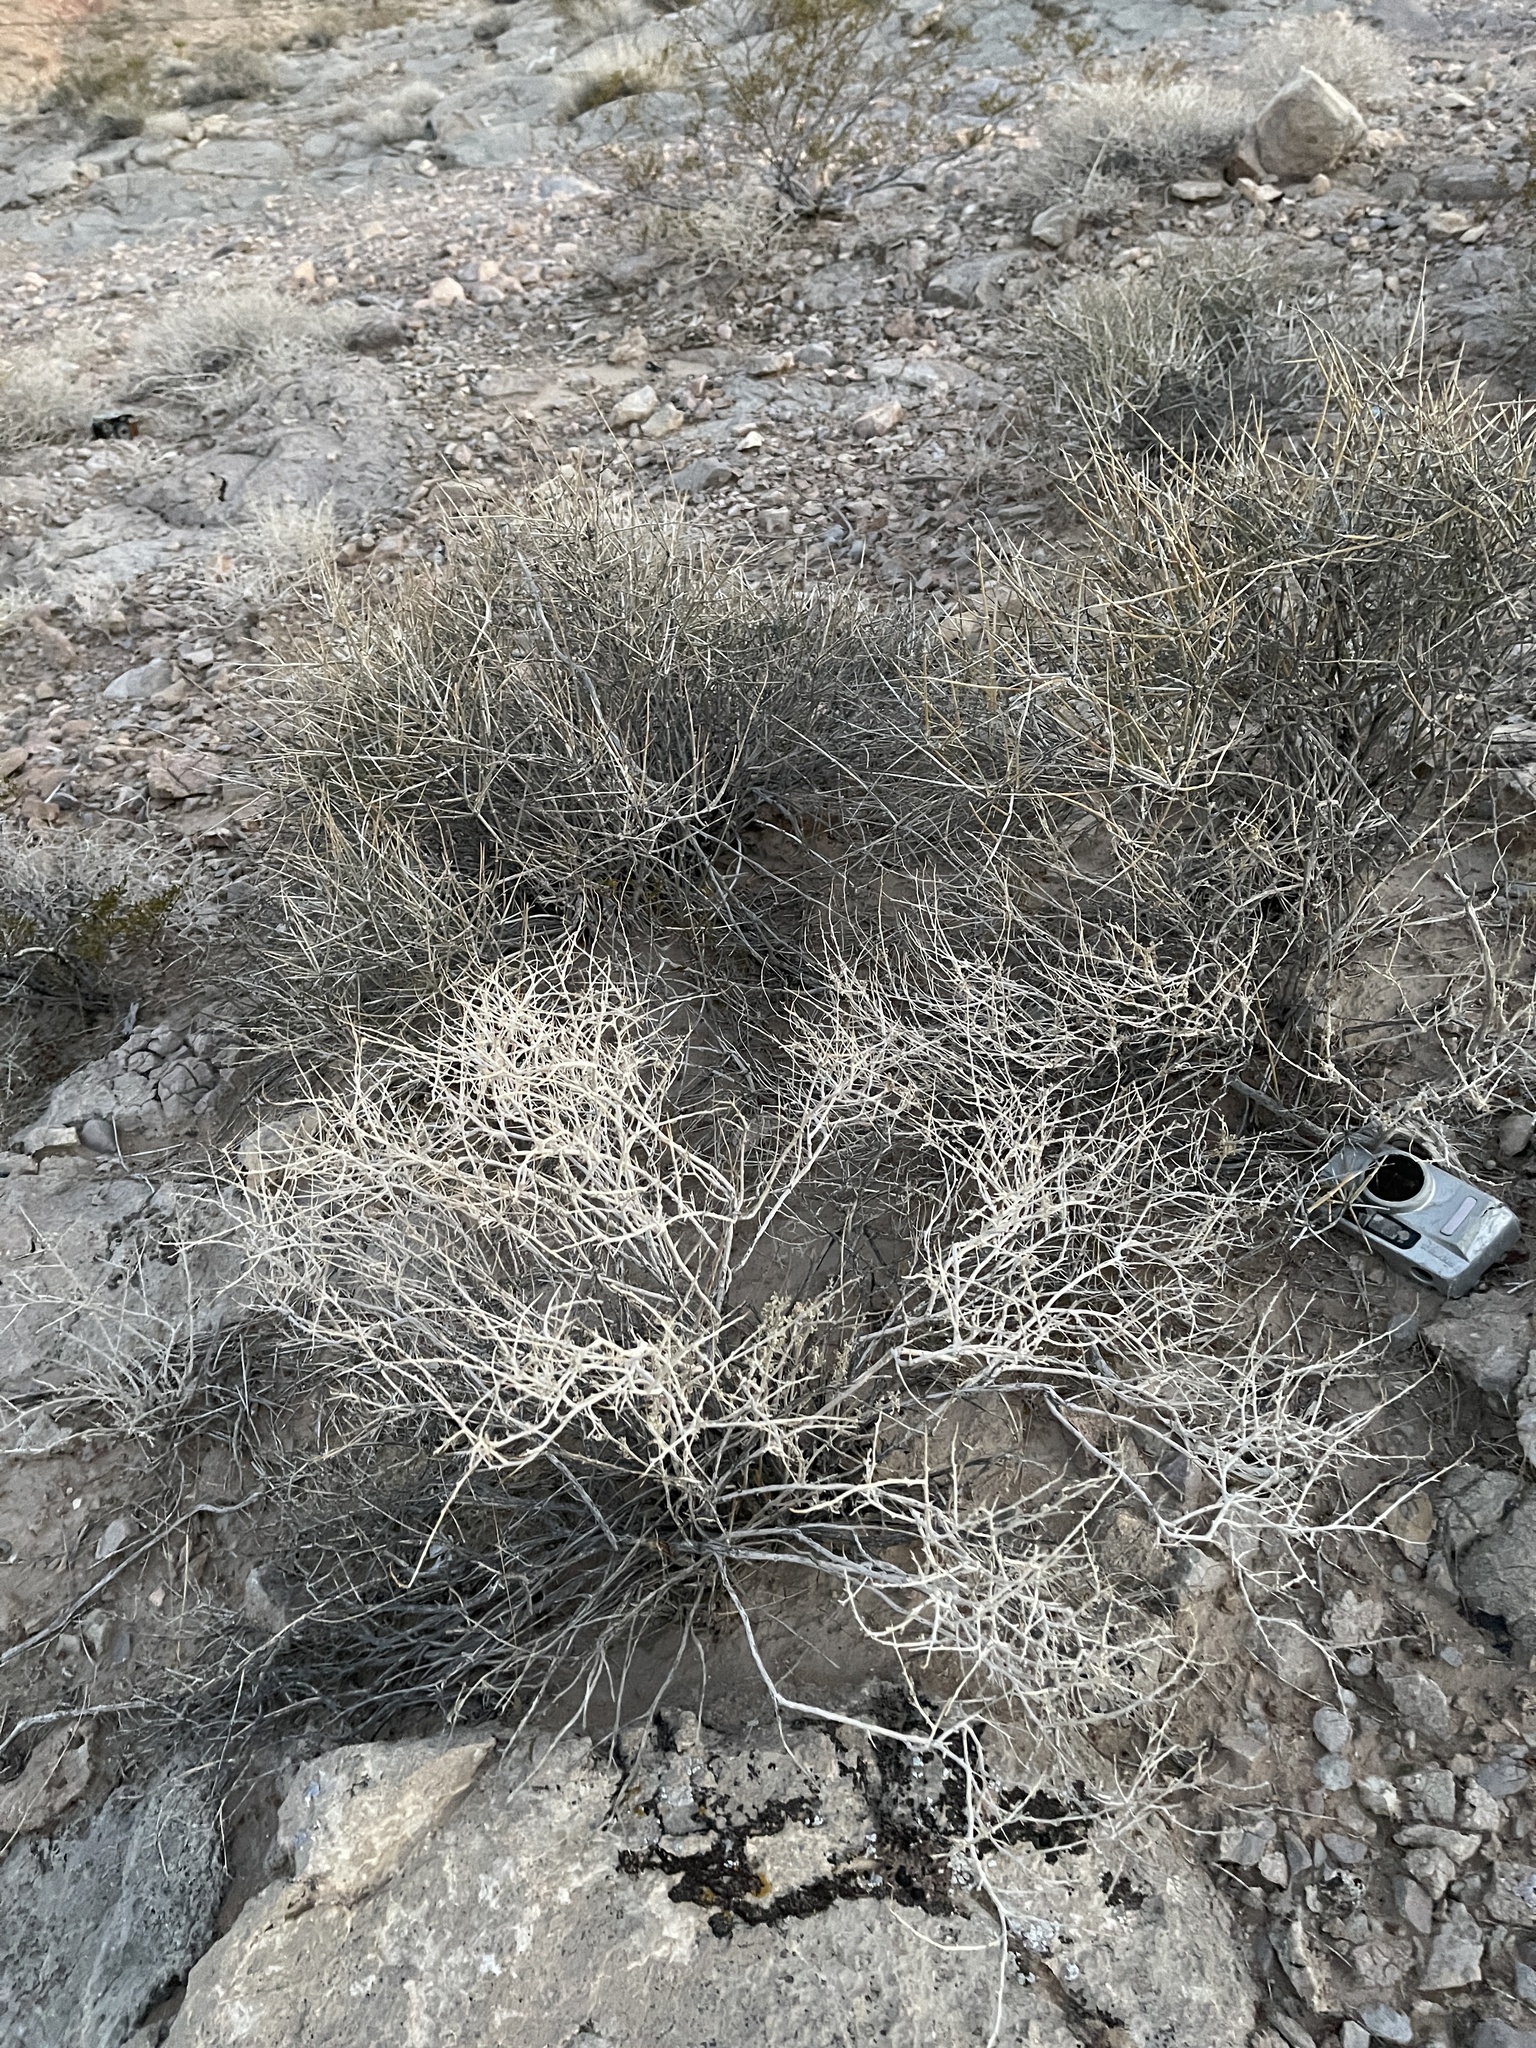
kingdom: Plantae
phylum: Tracheophyta
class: Gnetopsida
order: Ephedrales
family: Ephedraceae
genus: Ephedra
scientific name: Ephedra nevadensis
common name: Gray ephedra
